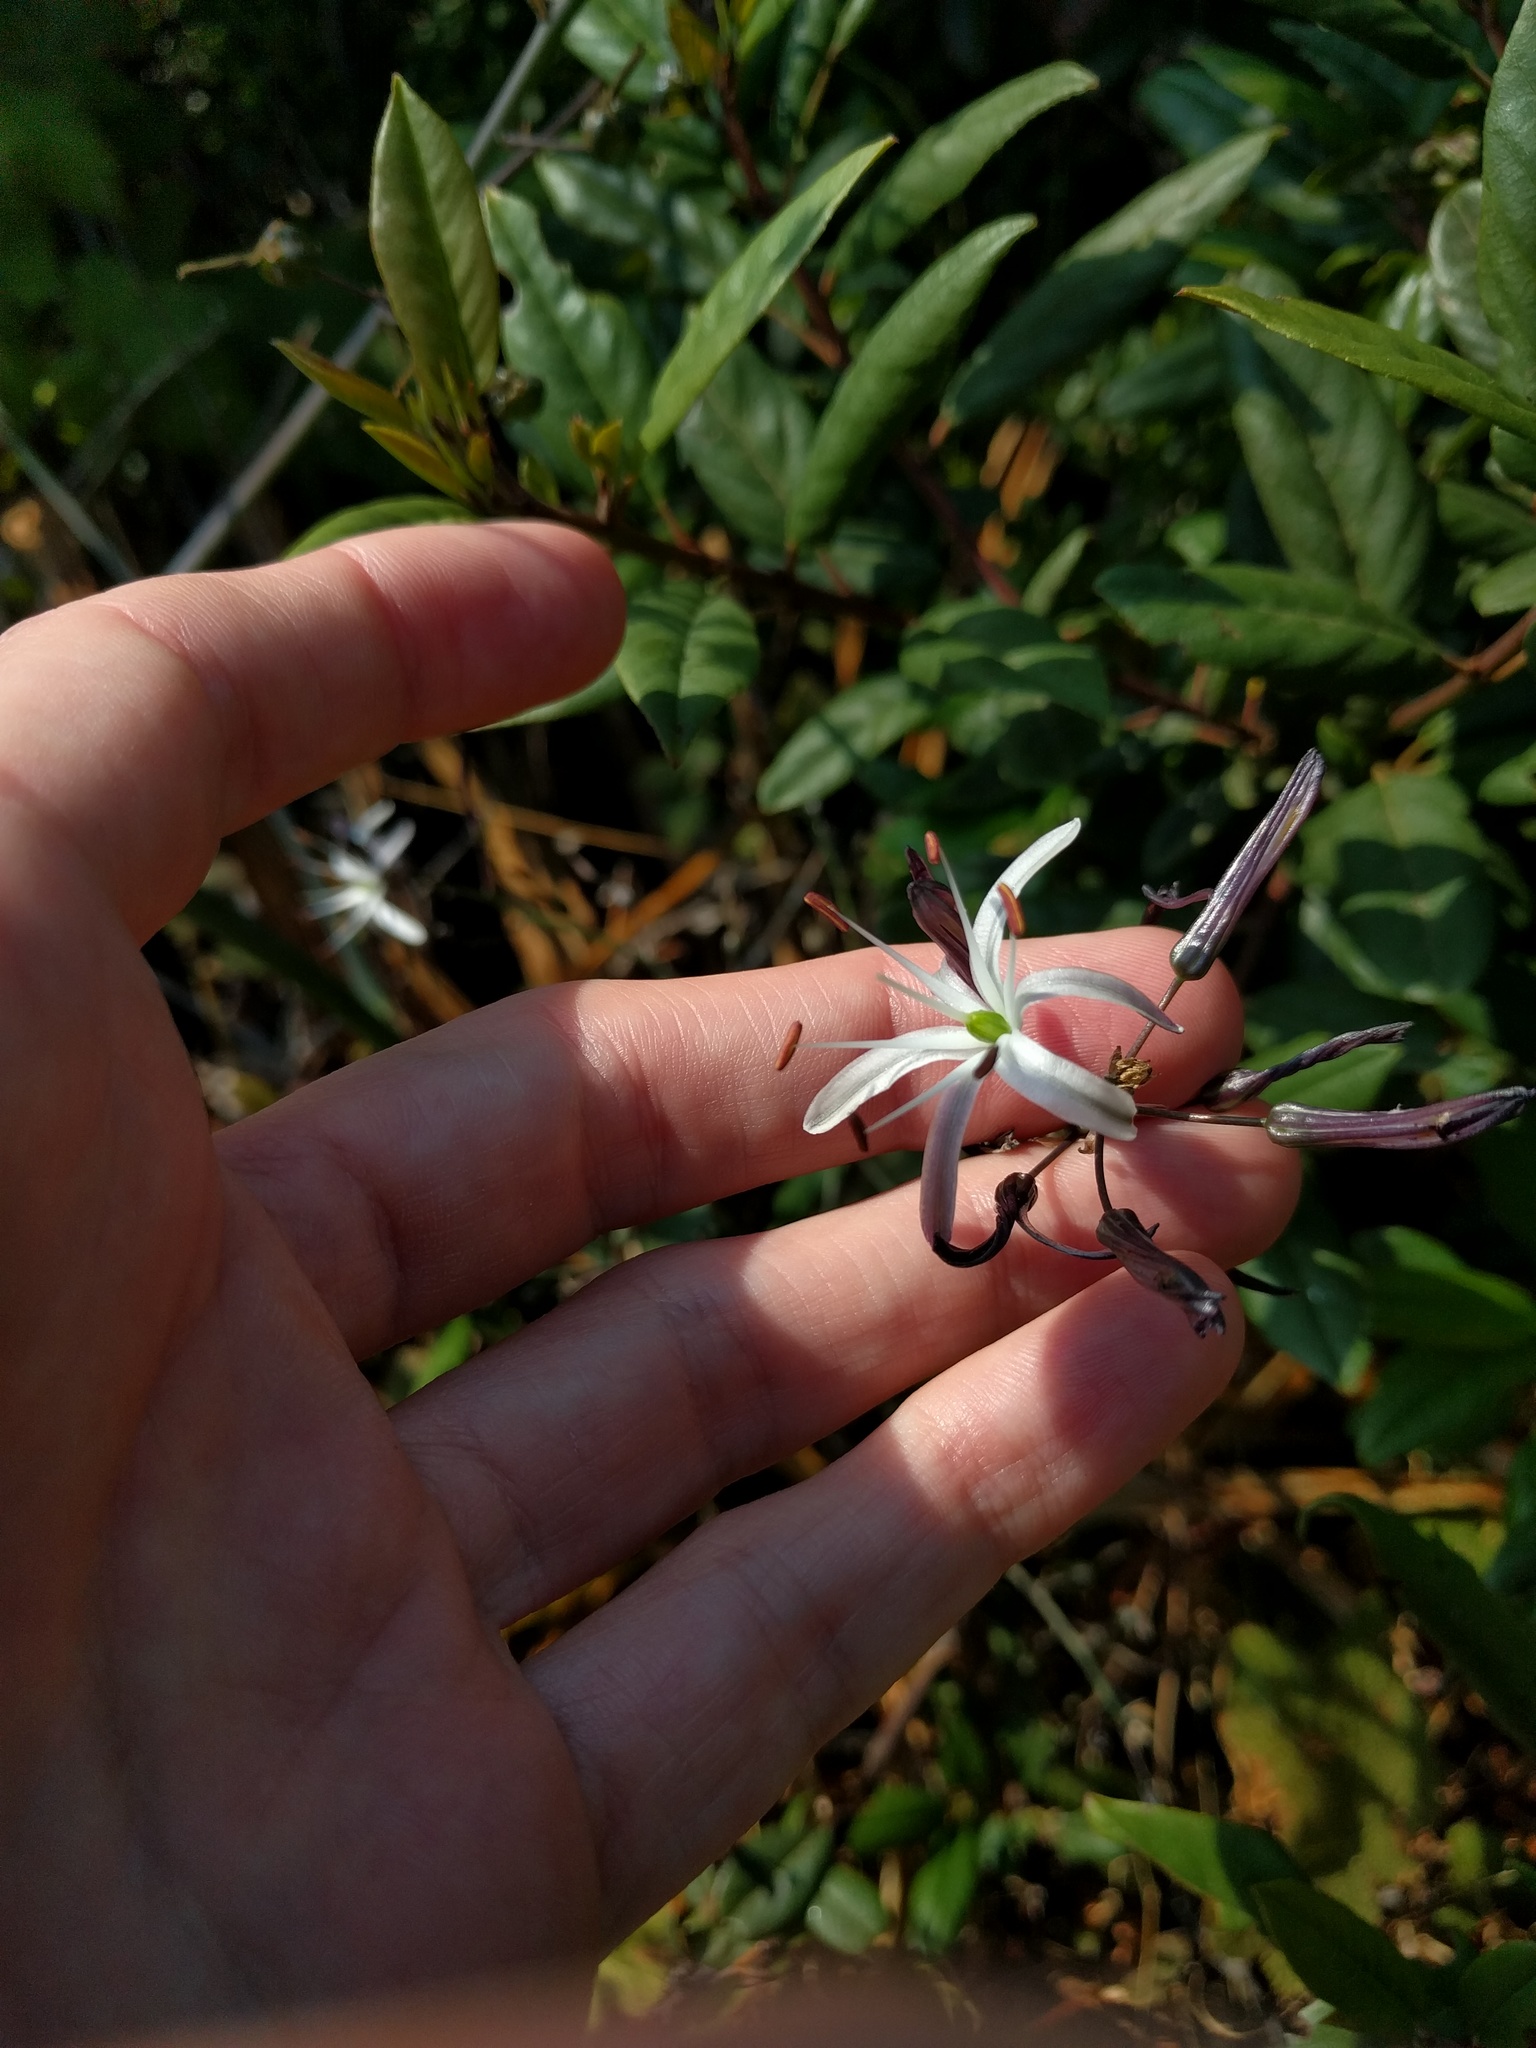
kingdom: Plantae
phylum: Tracheophyta
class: Liliopsida
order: Asparagales
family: Asparagaceae
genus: Chlorogalum
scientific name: Chlorogalum pomeridianum
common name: Amole
